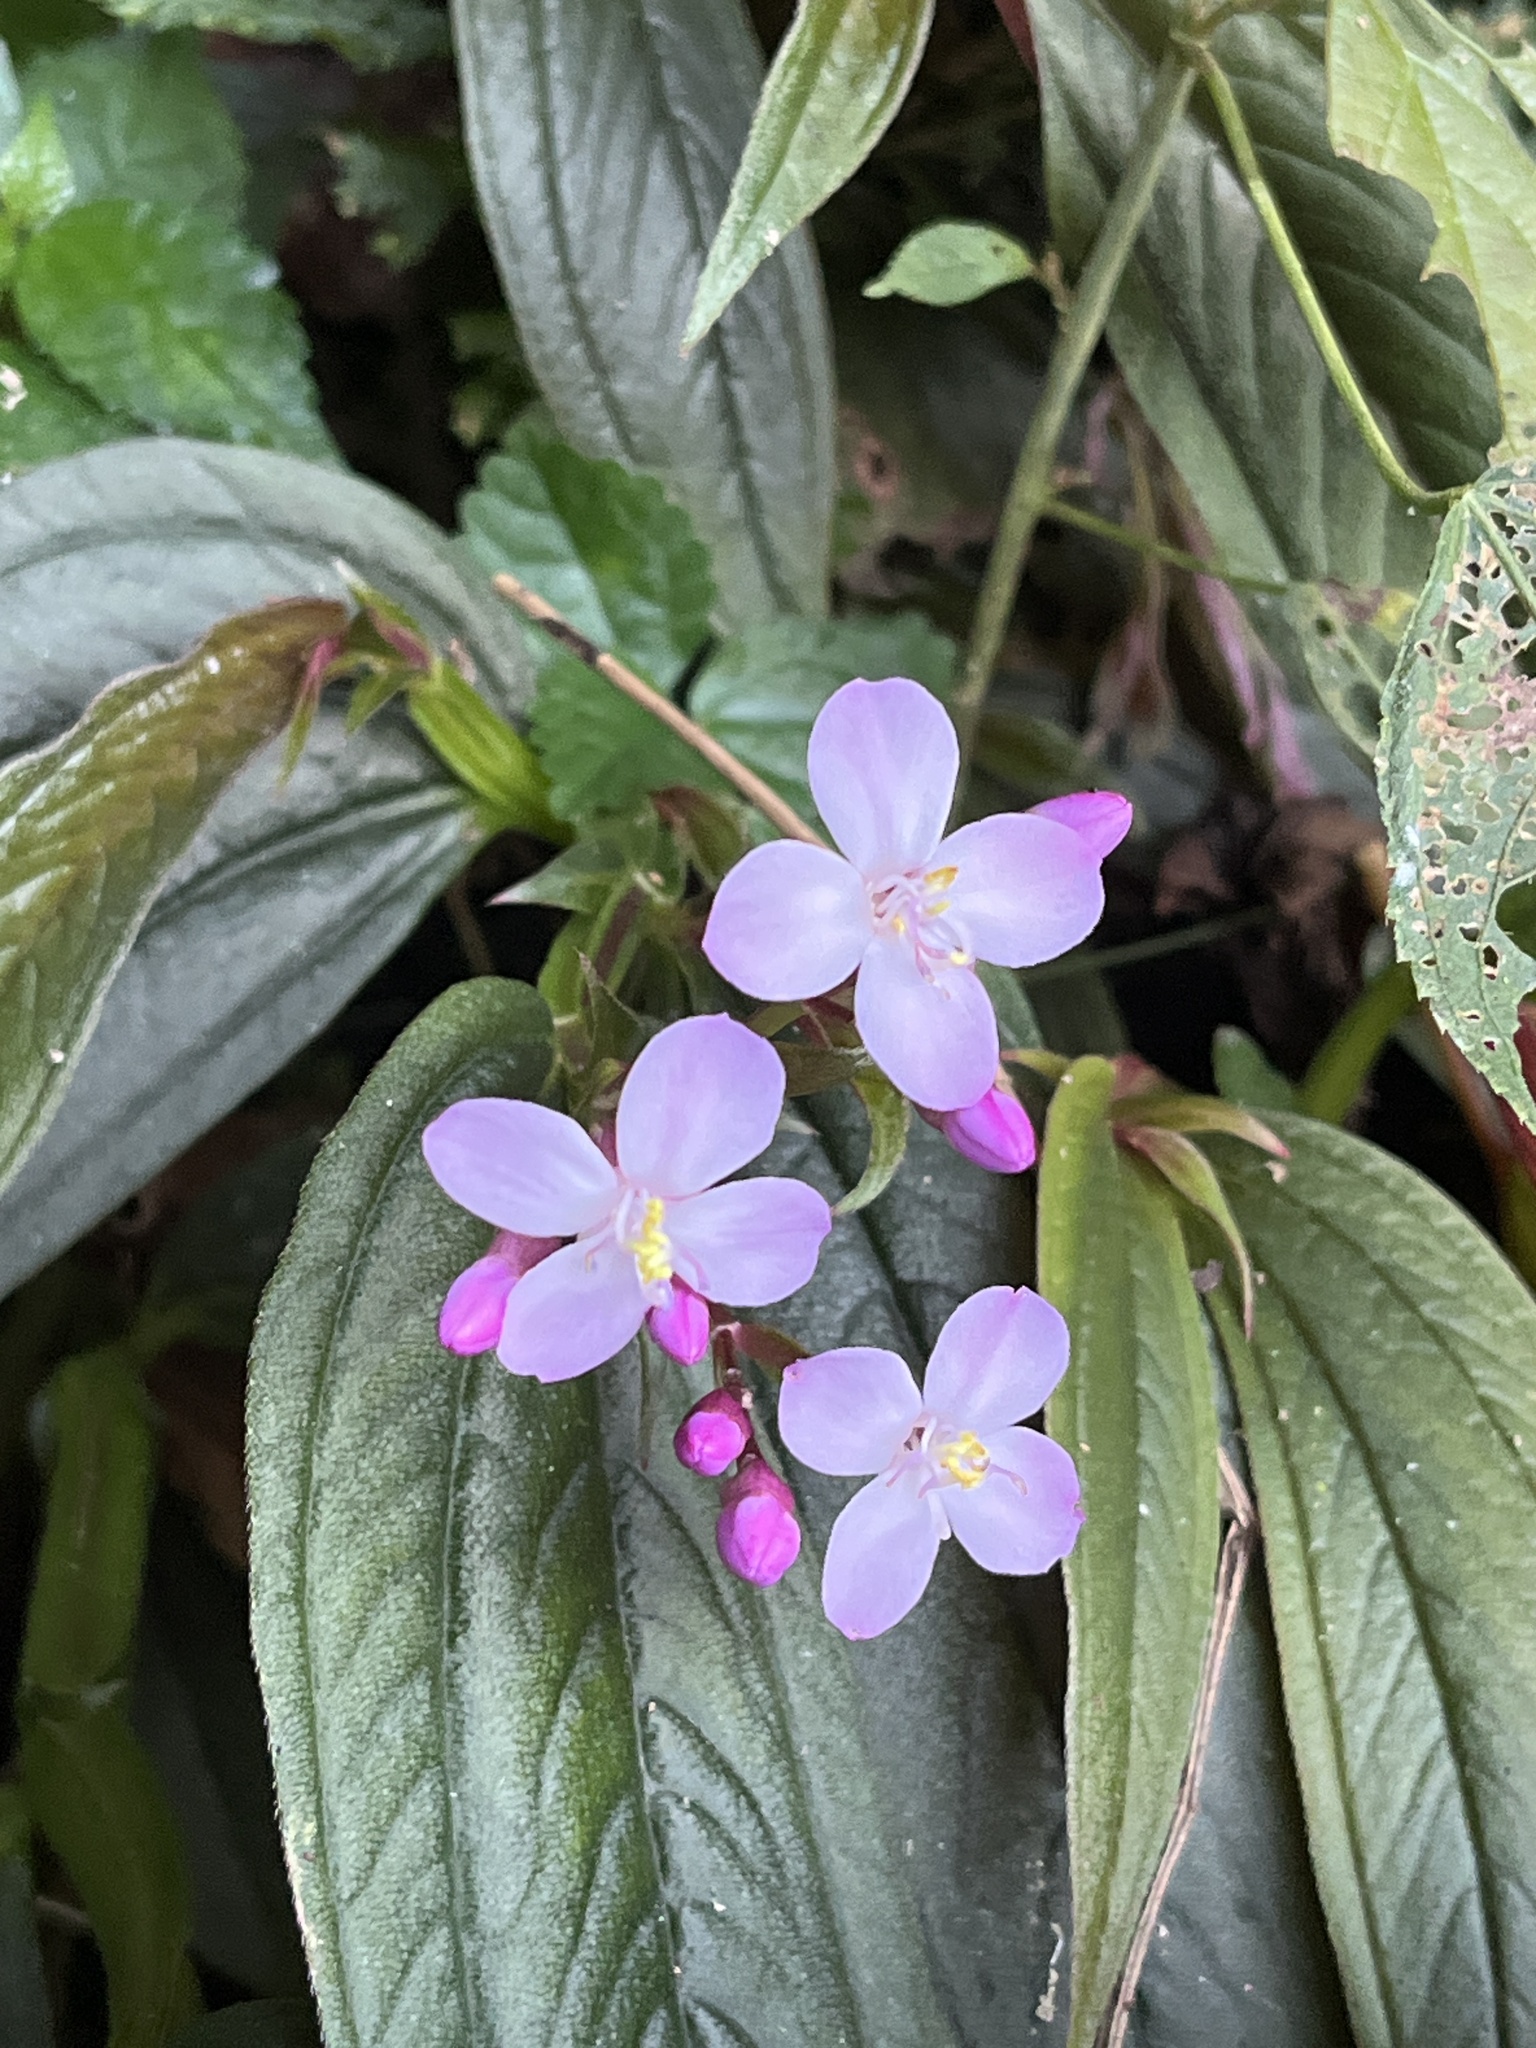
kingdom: Plantae
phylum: Tracheophyta
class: Magnoliopsida
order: Myrtales
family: Melastomataceae
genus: Centradenia
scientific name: Centradenia grandifolia
